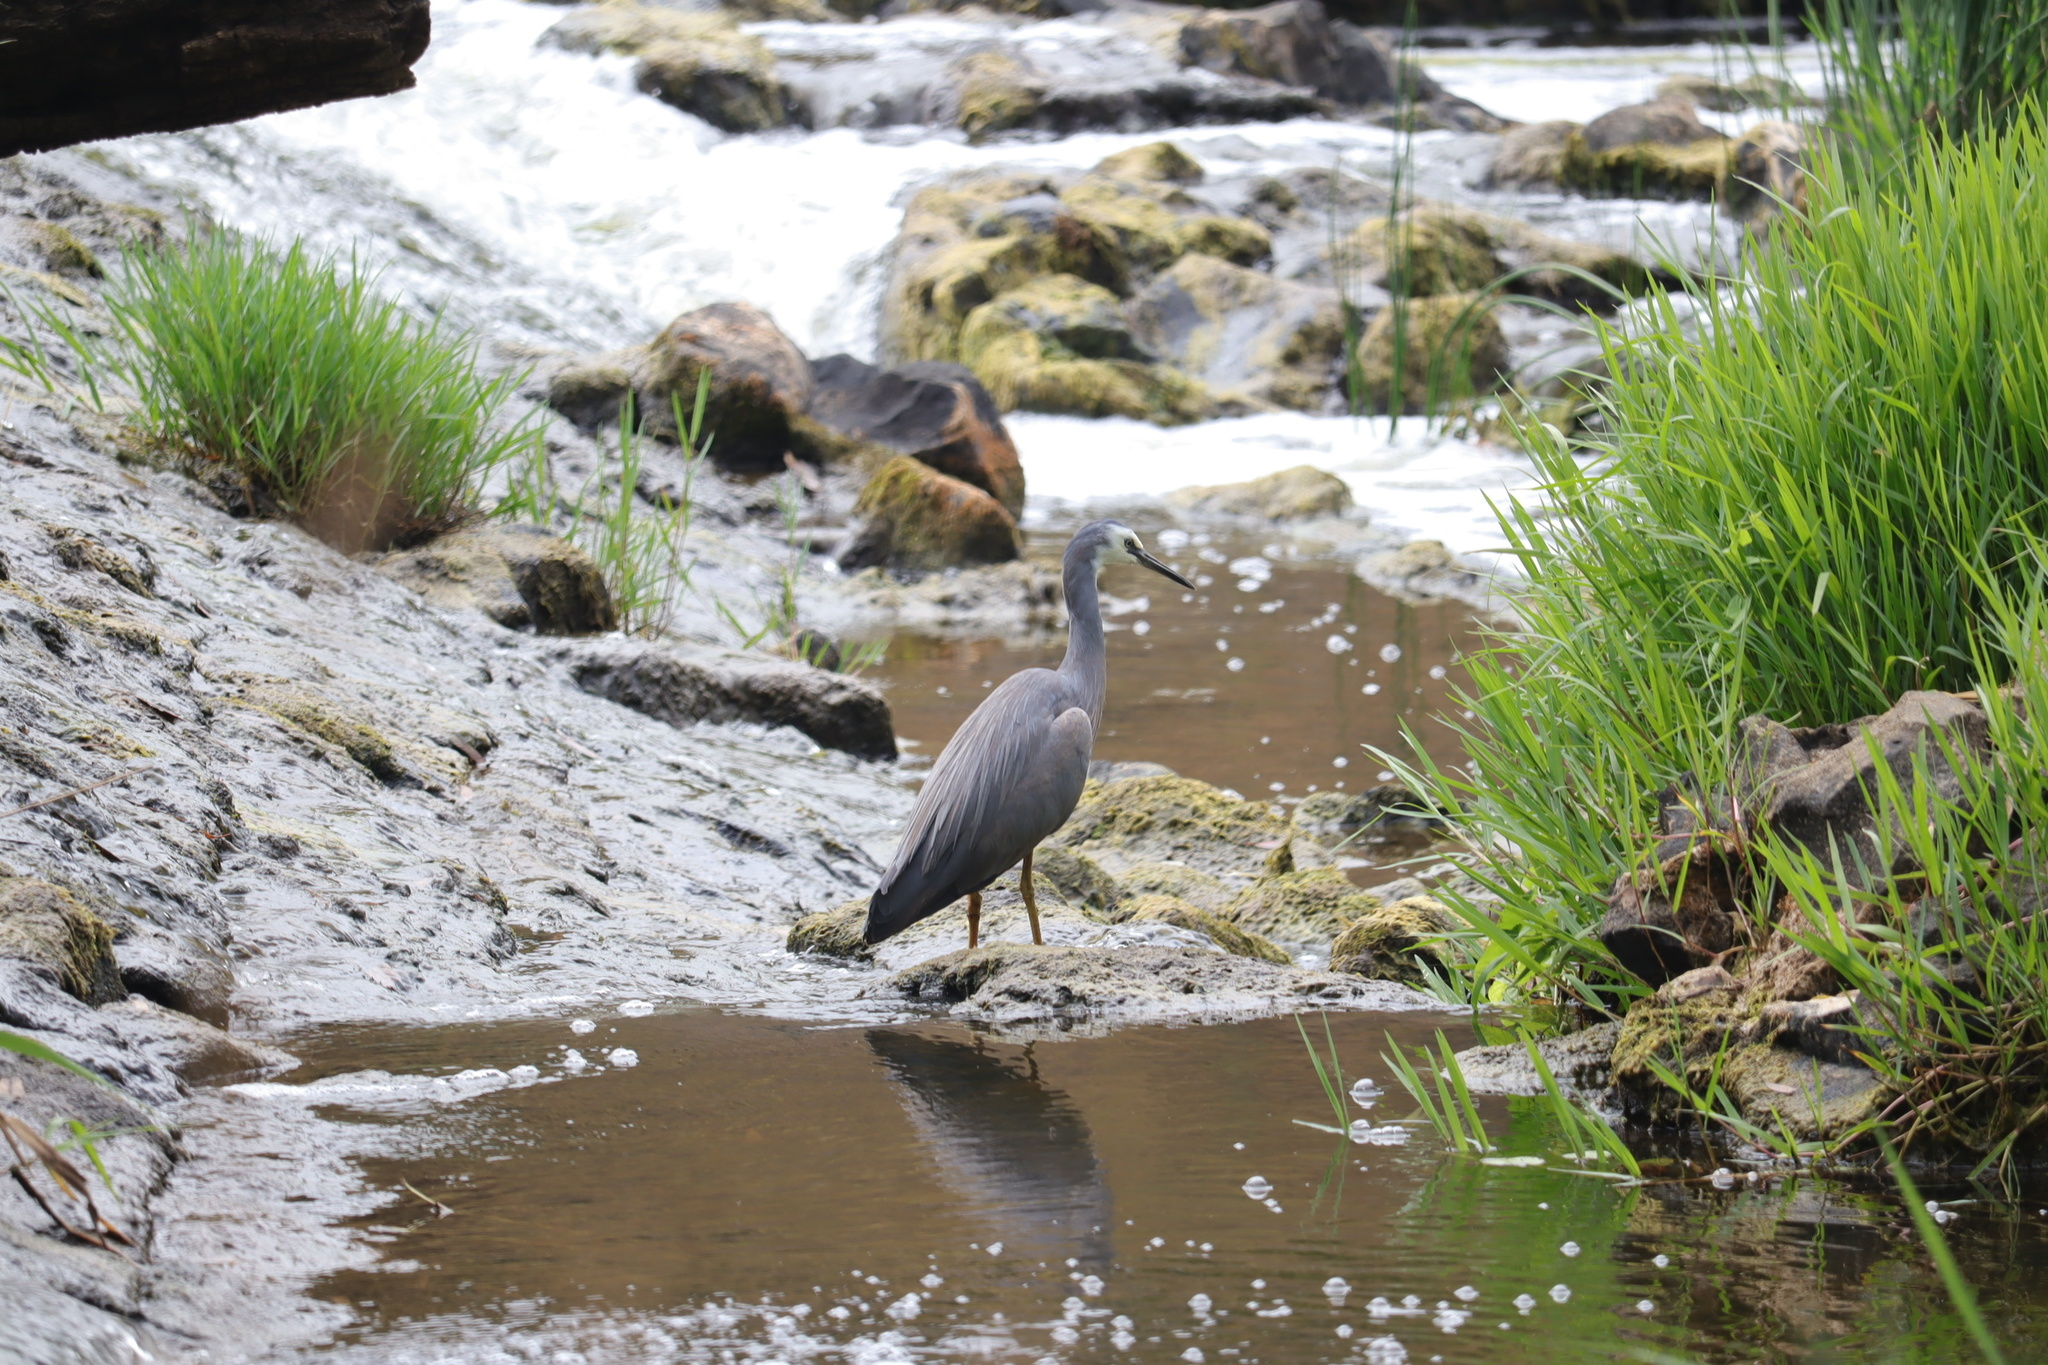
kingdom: Animalia
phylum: Chordata
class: Aves
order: Pelecaniformes
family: Ardeidae
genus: Egretta
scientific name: Egretta novaehollandiae
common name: White-faced heron
